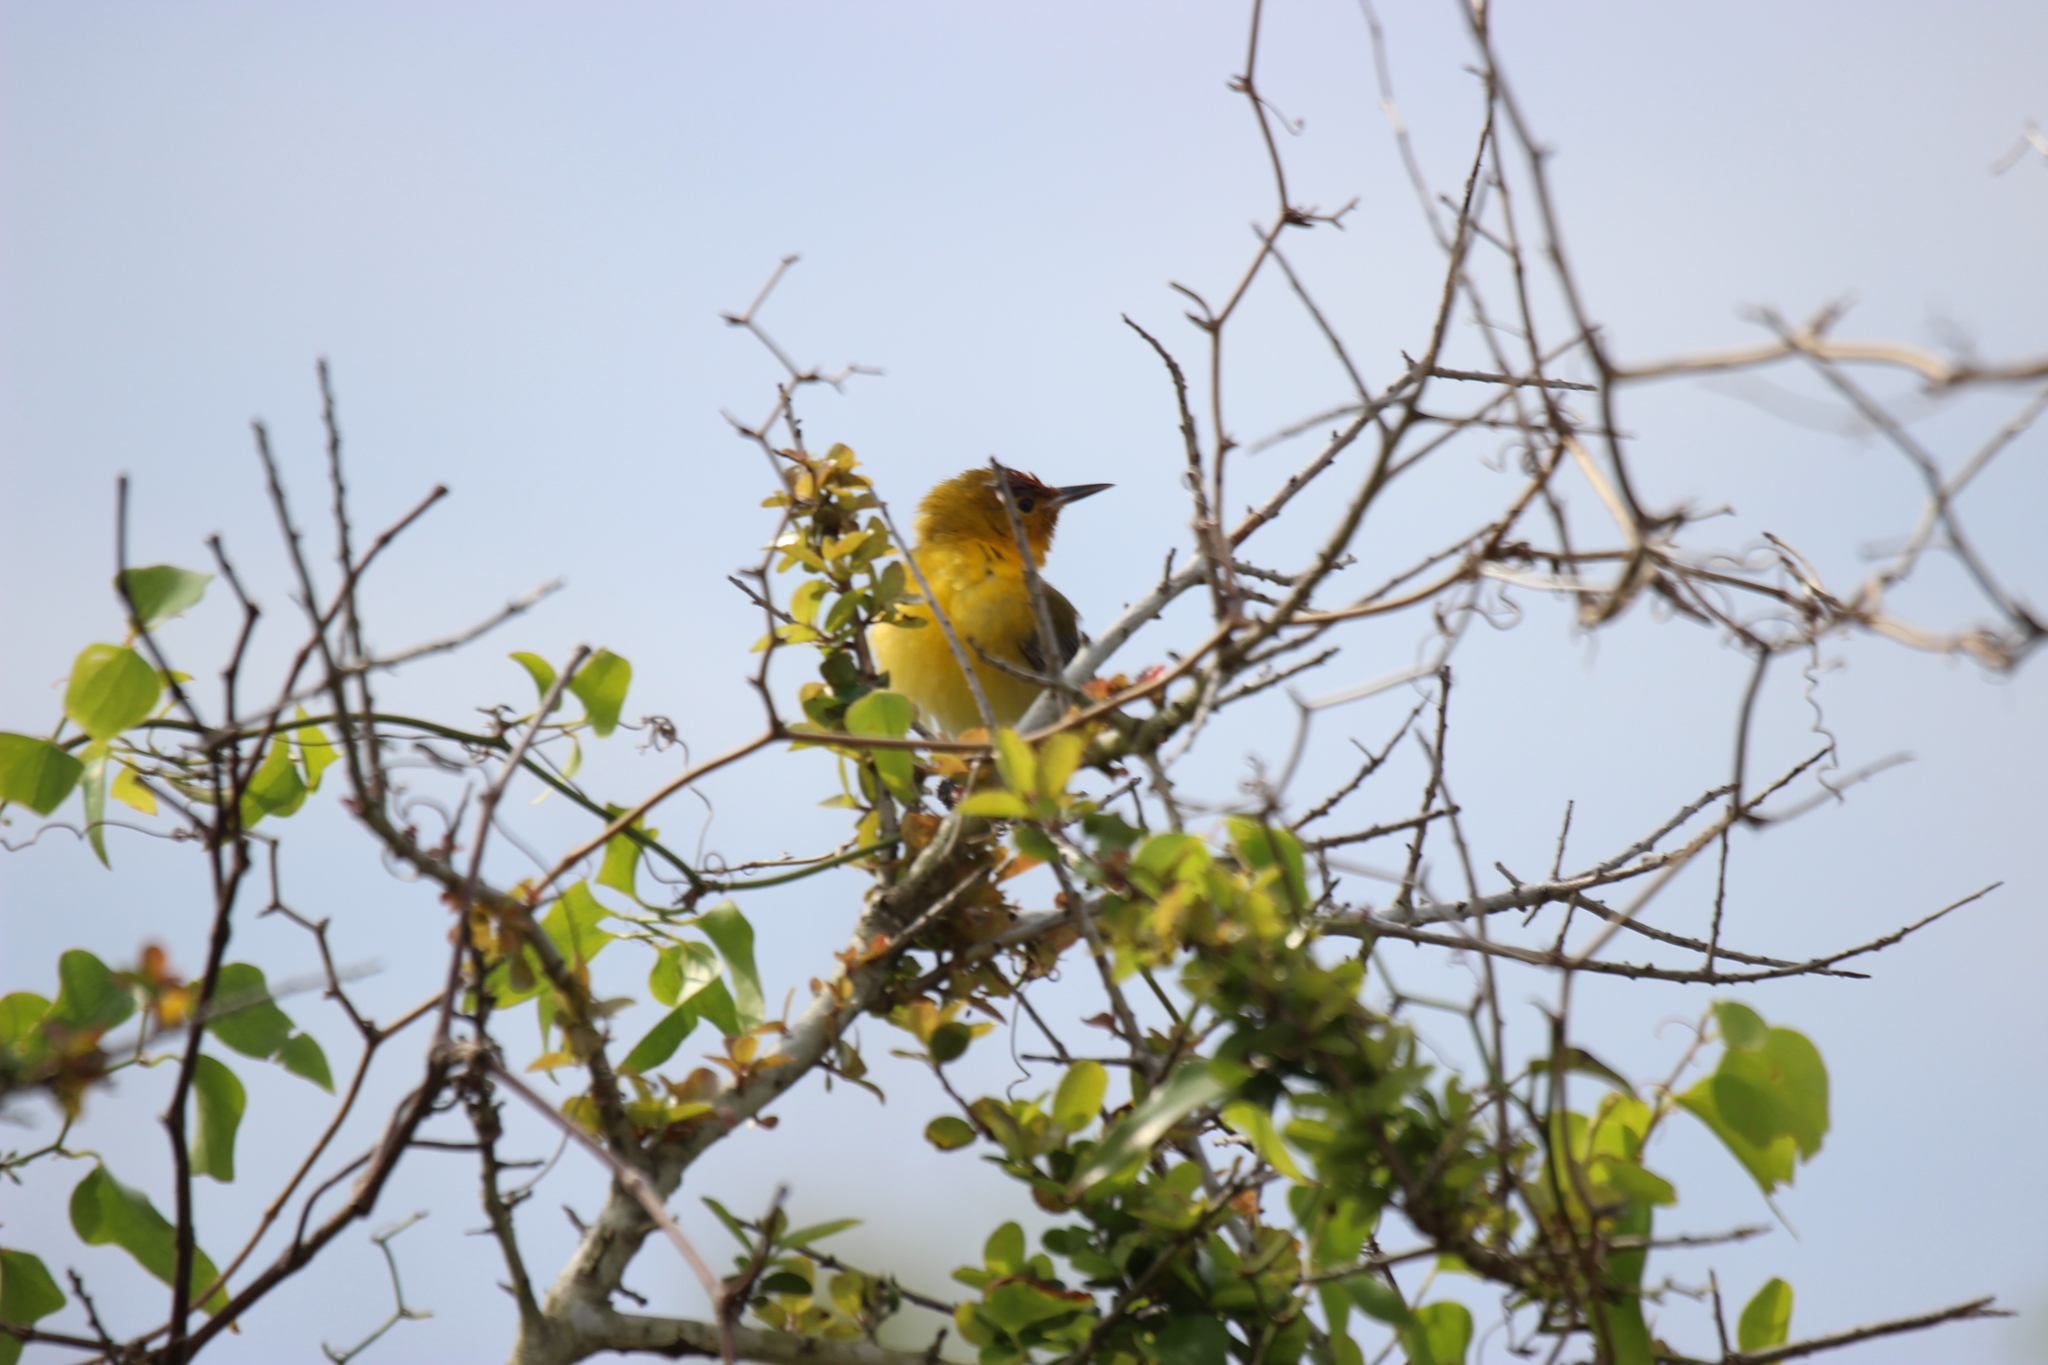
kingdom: Animalia
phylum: Chordata
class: Aves
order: Passeriformes
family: Parulidae
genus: Protonotaria
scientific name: Protonotaria citrea
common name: Prothonotary warbler
